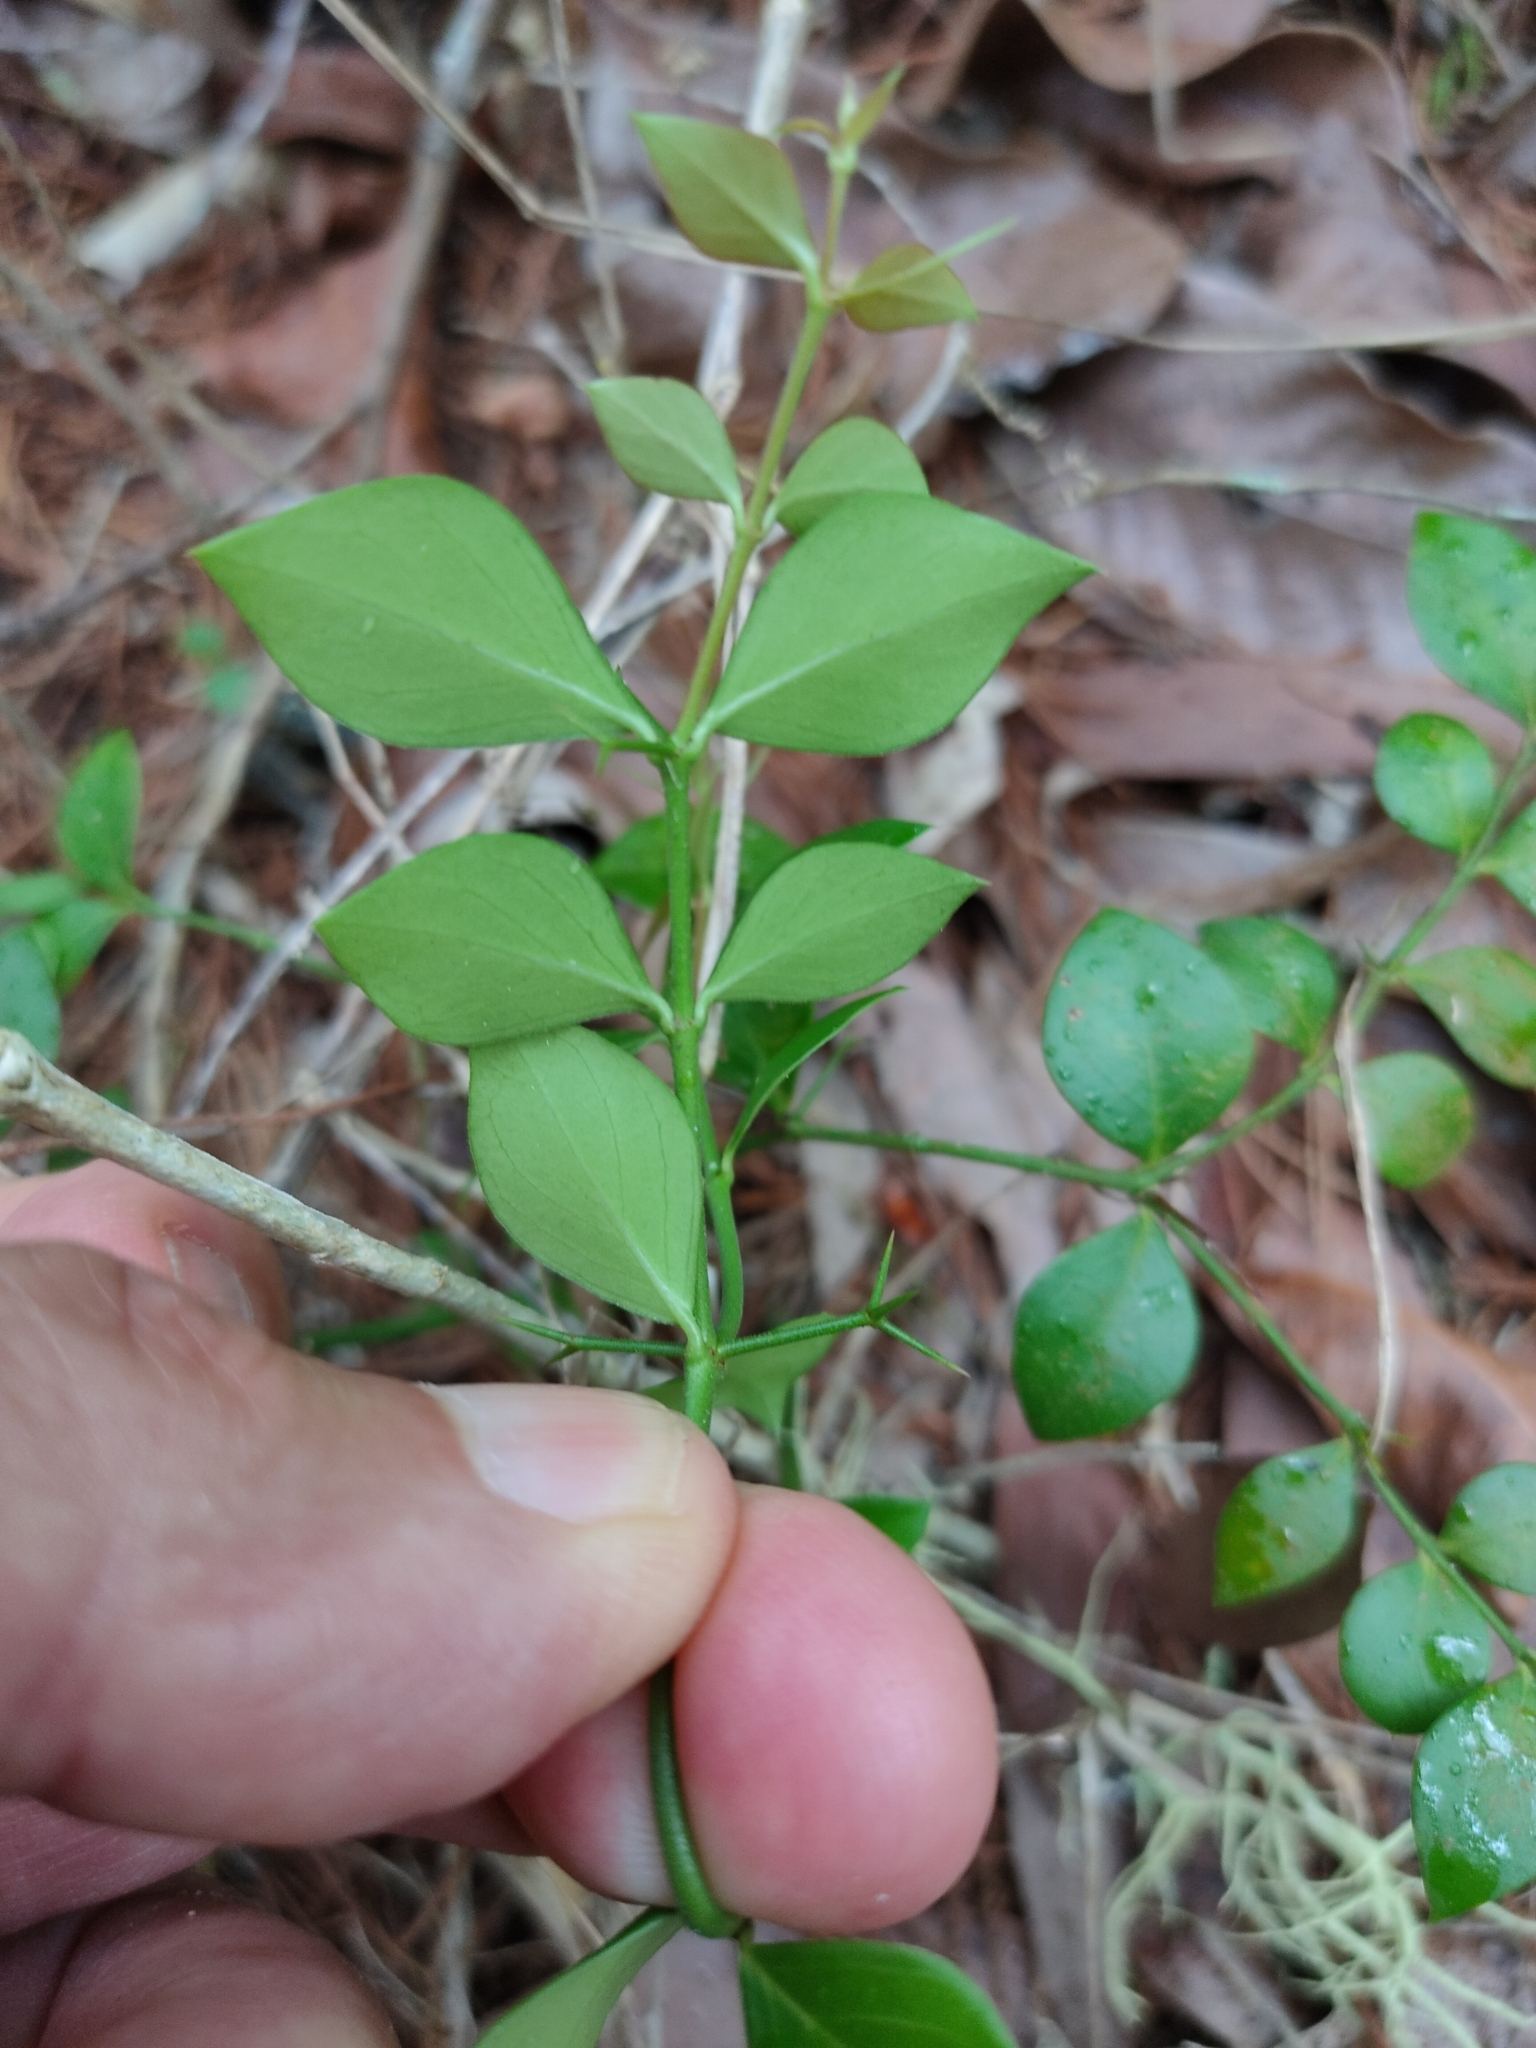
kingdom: Plantae
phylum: Tracheophyta
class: Magnoliopsida
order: Gentianales
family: Apocynaceae
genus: Carissa
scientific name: Carissa ovata
